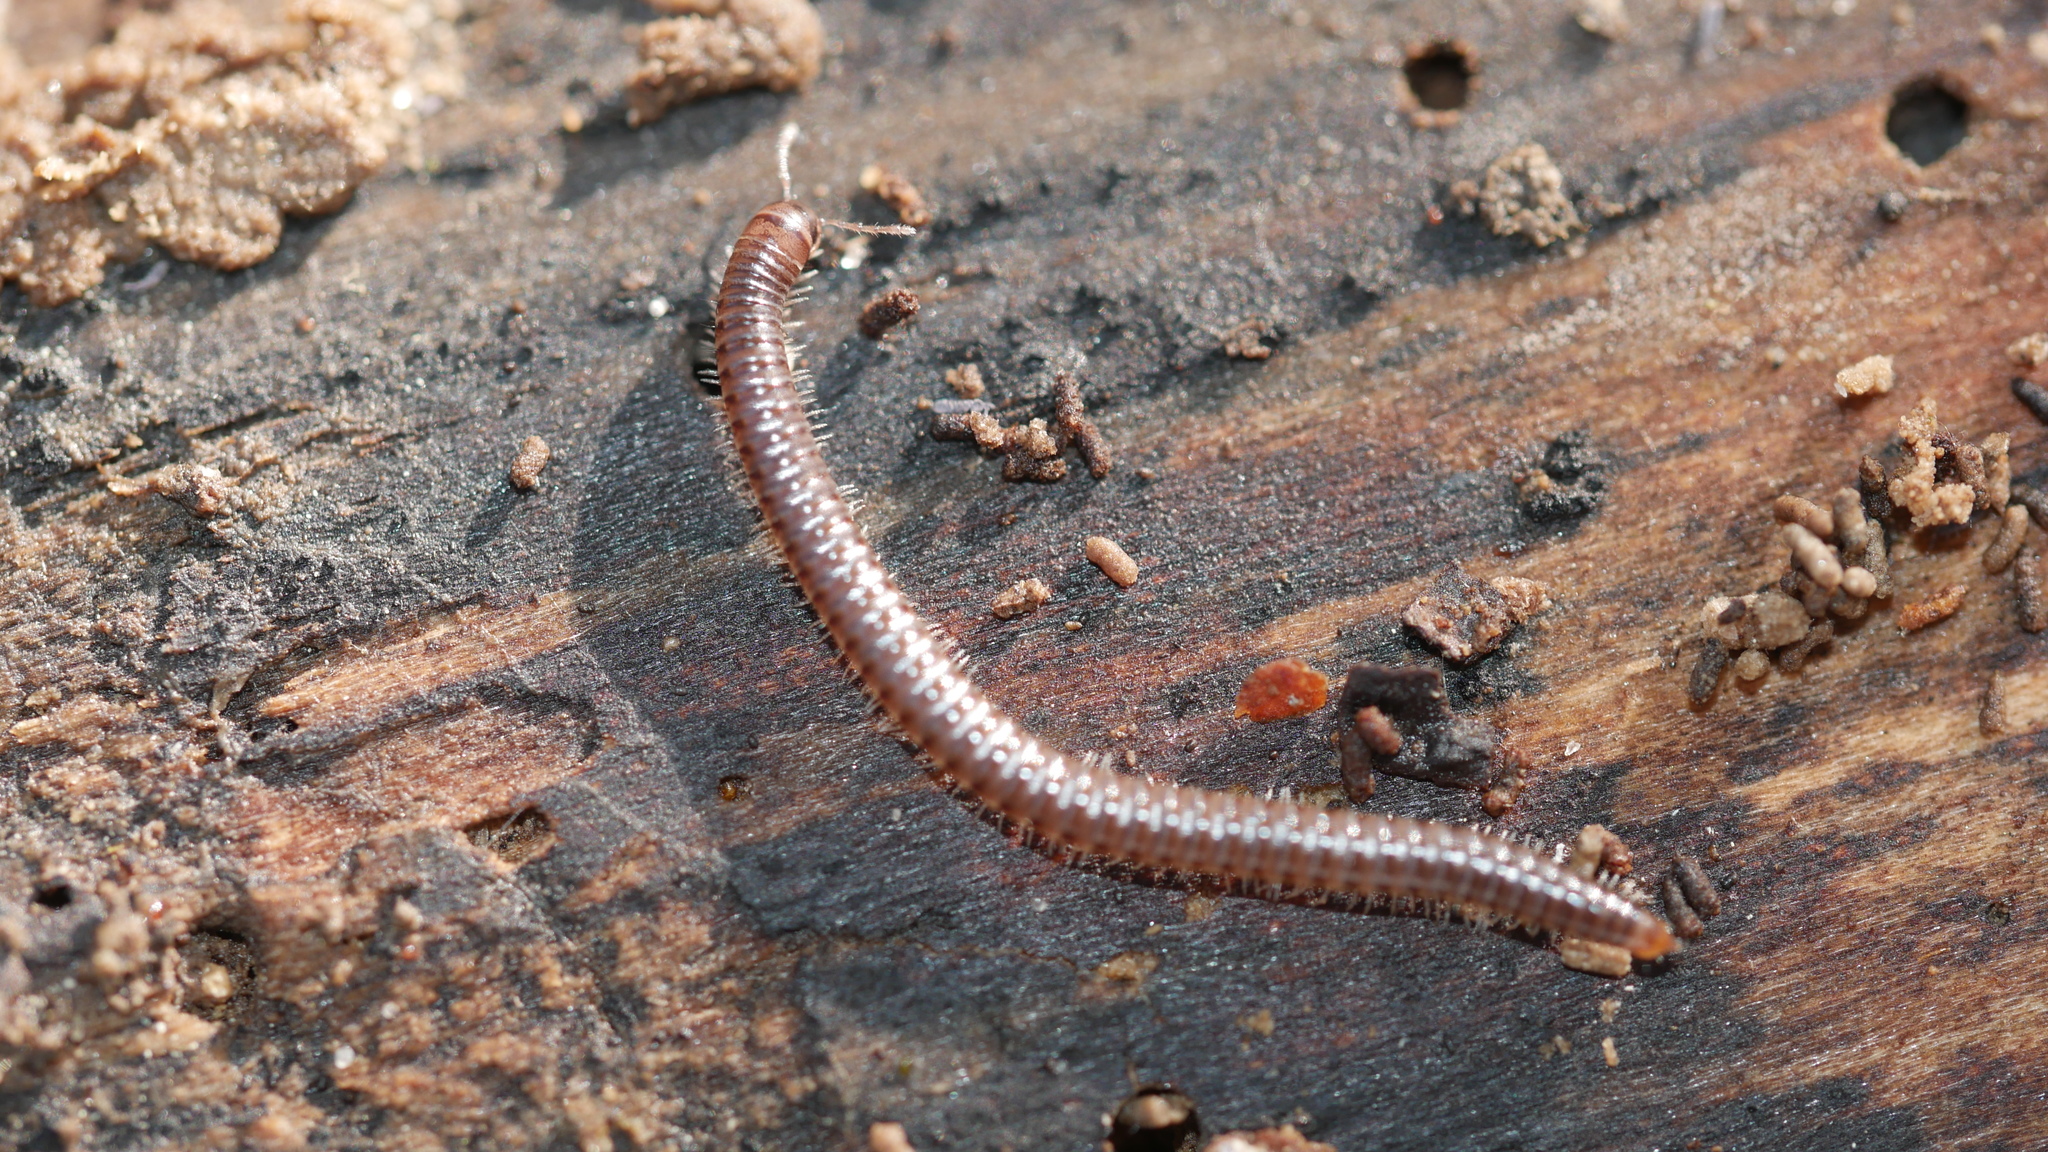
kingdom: Animalia
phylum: Arthropoda
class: Diplopoda
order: Julida
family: Julidae
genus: Ophyiulus
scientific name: Ophyiulus pilosus
